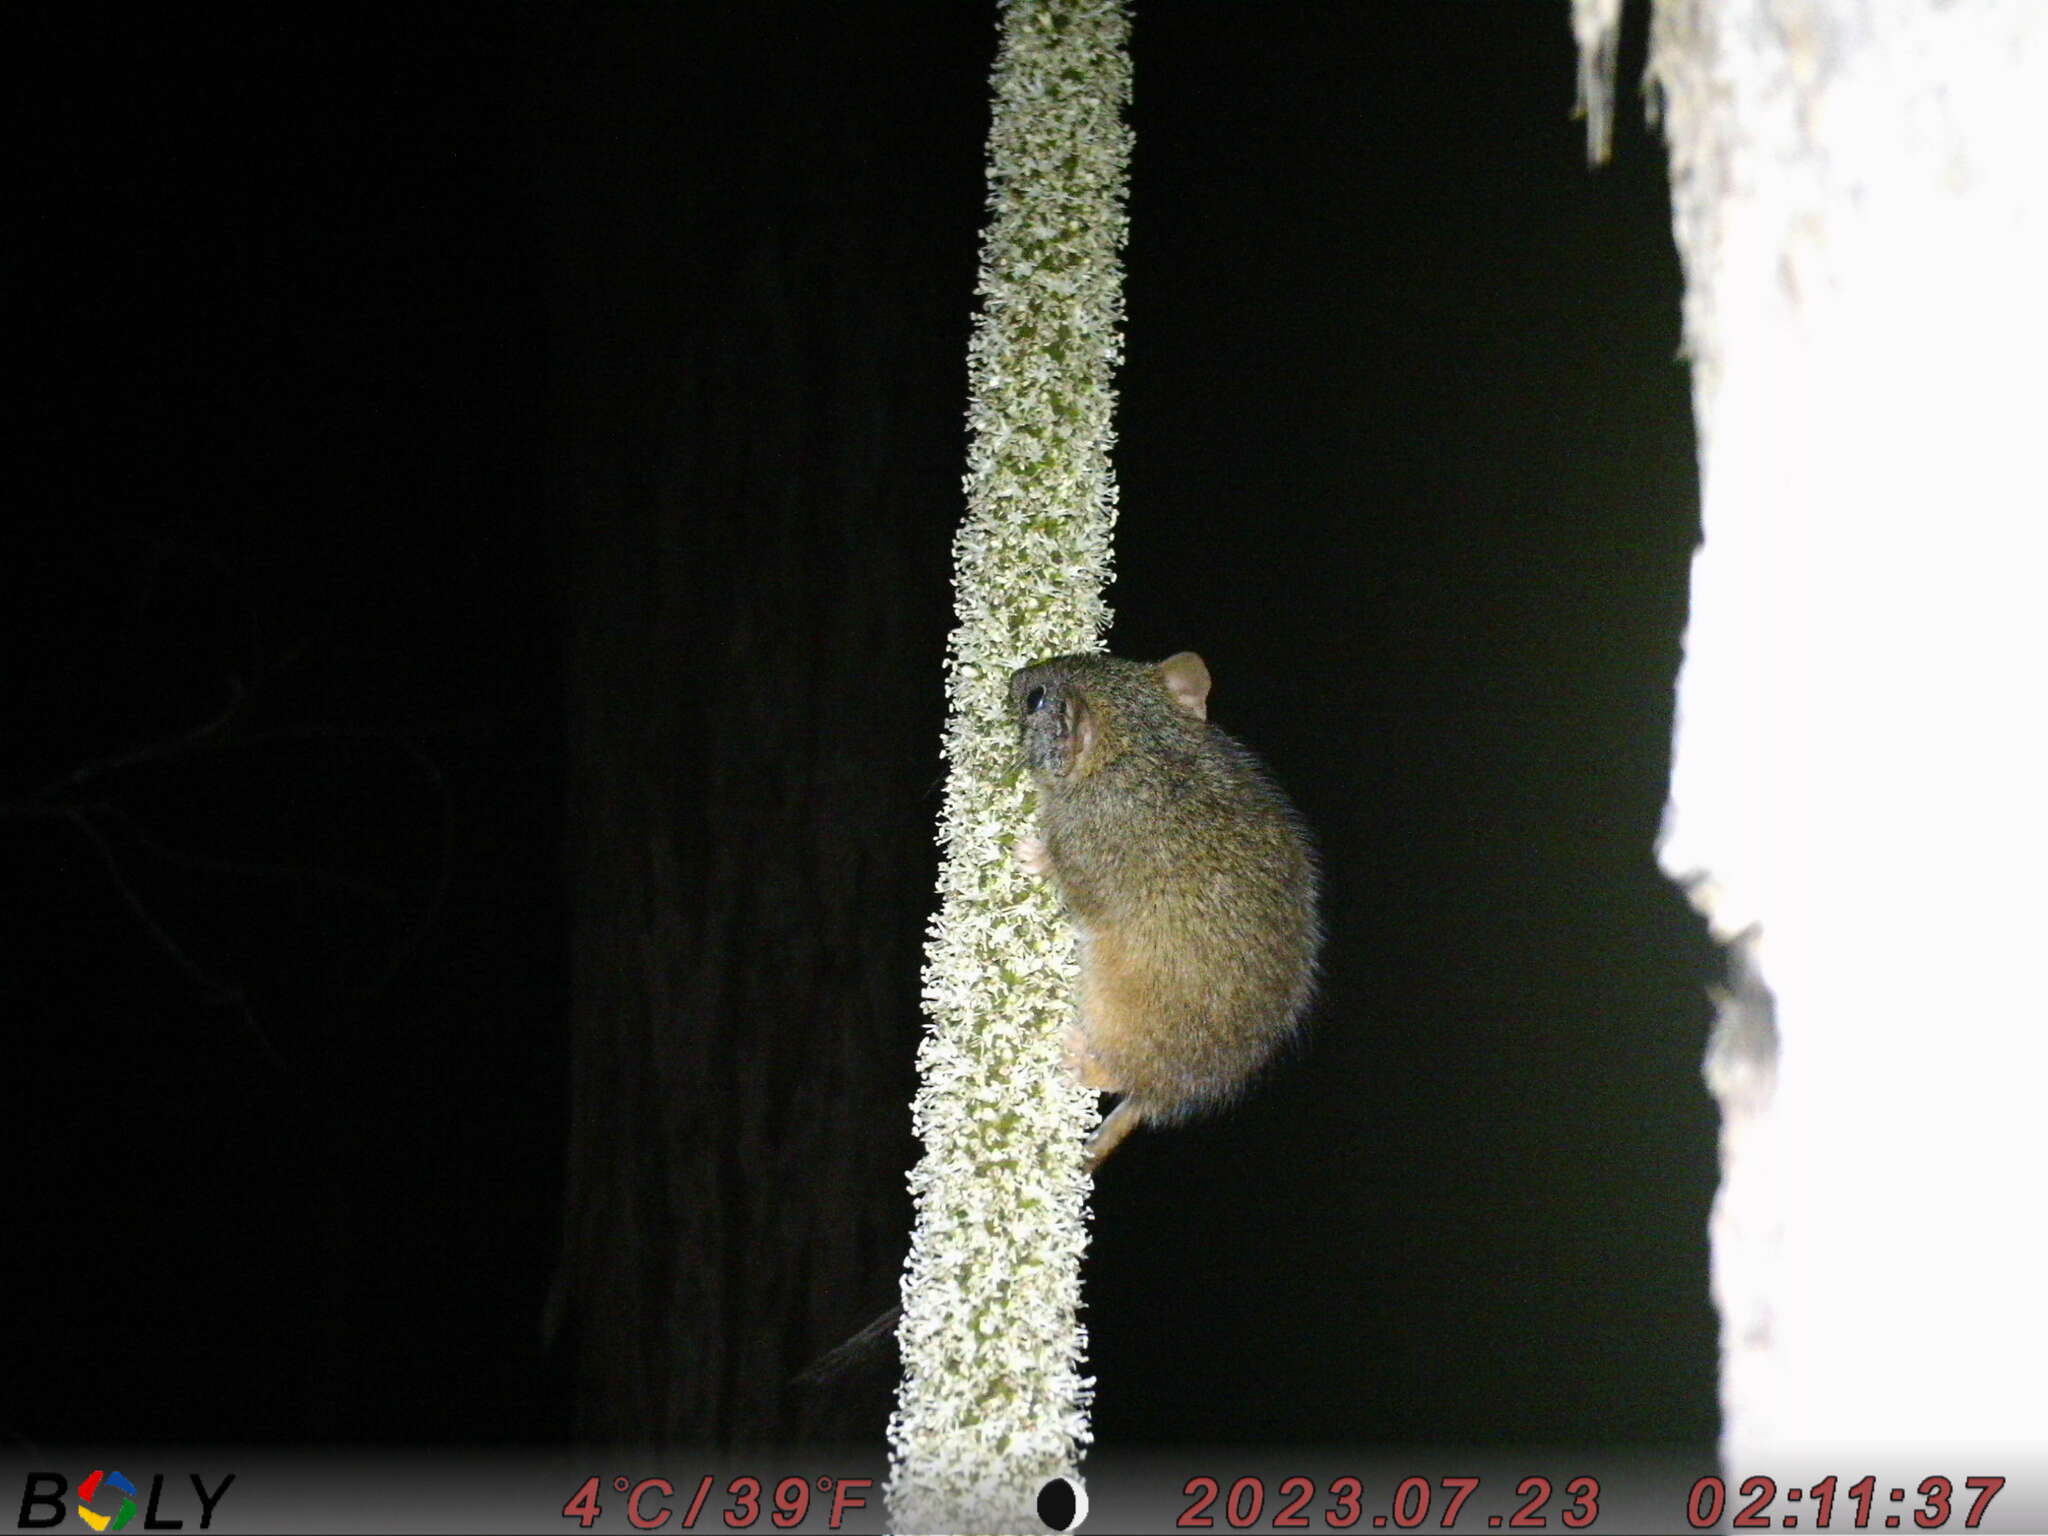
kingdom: Animalia
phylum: Chordata
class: Mammalia
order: Dasyuromorphia
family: Dasyuridae
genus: Antechinus
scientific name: Antechinus flavipes
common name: Yellow-footed antechinus
